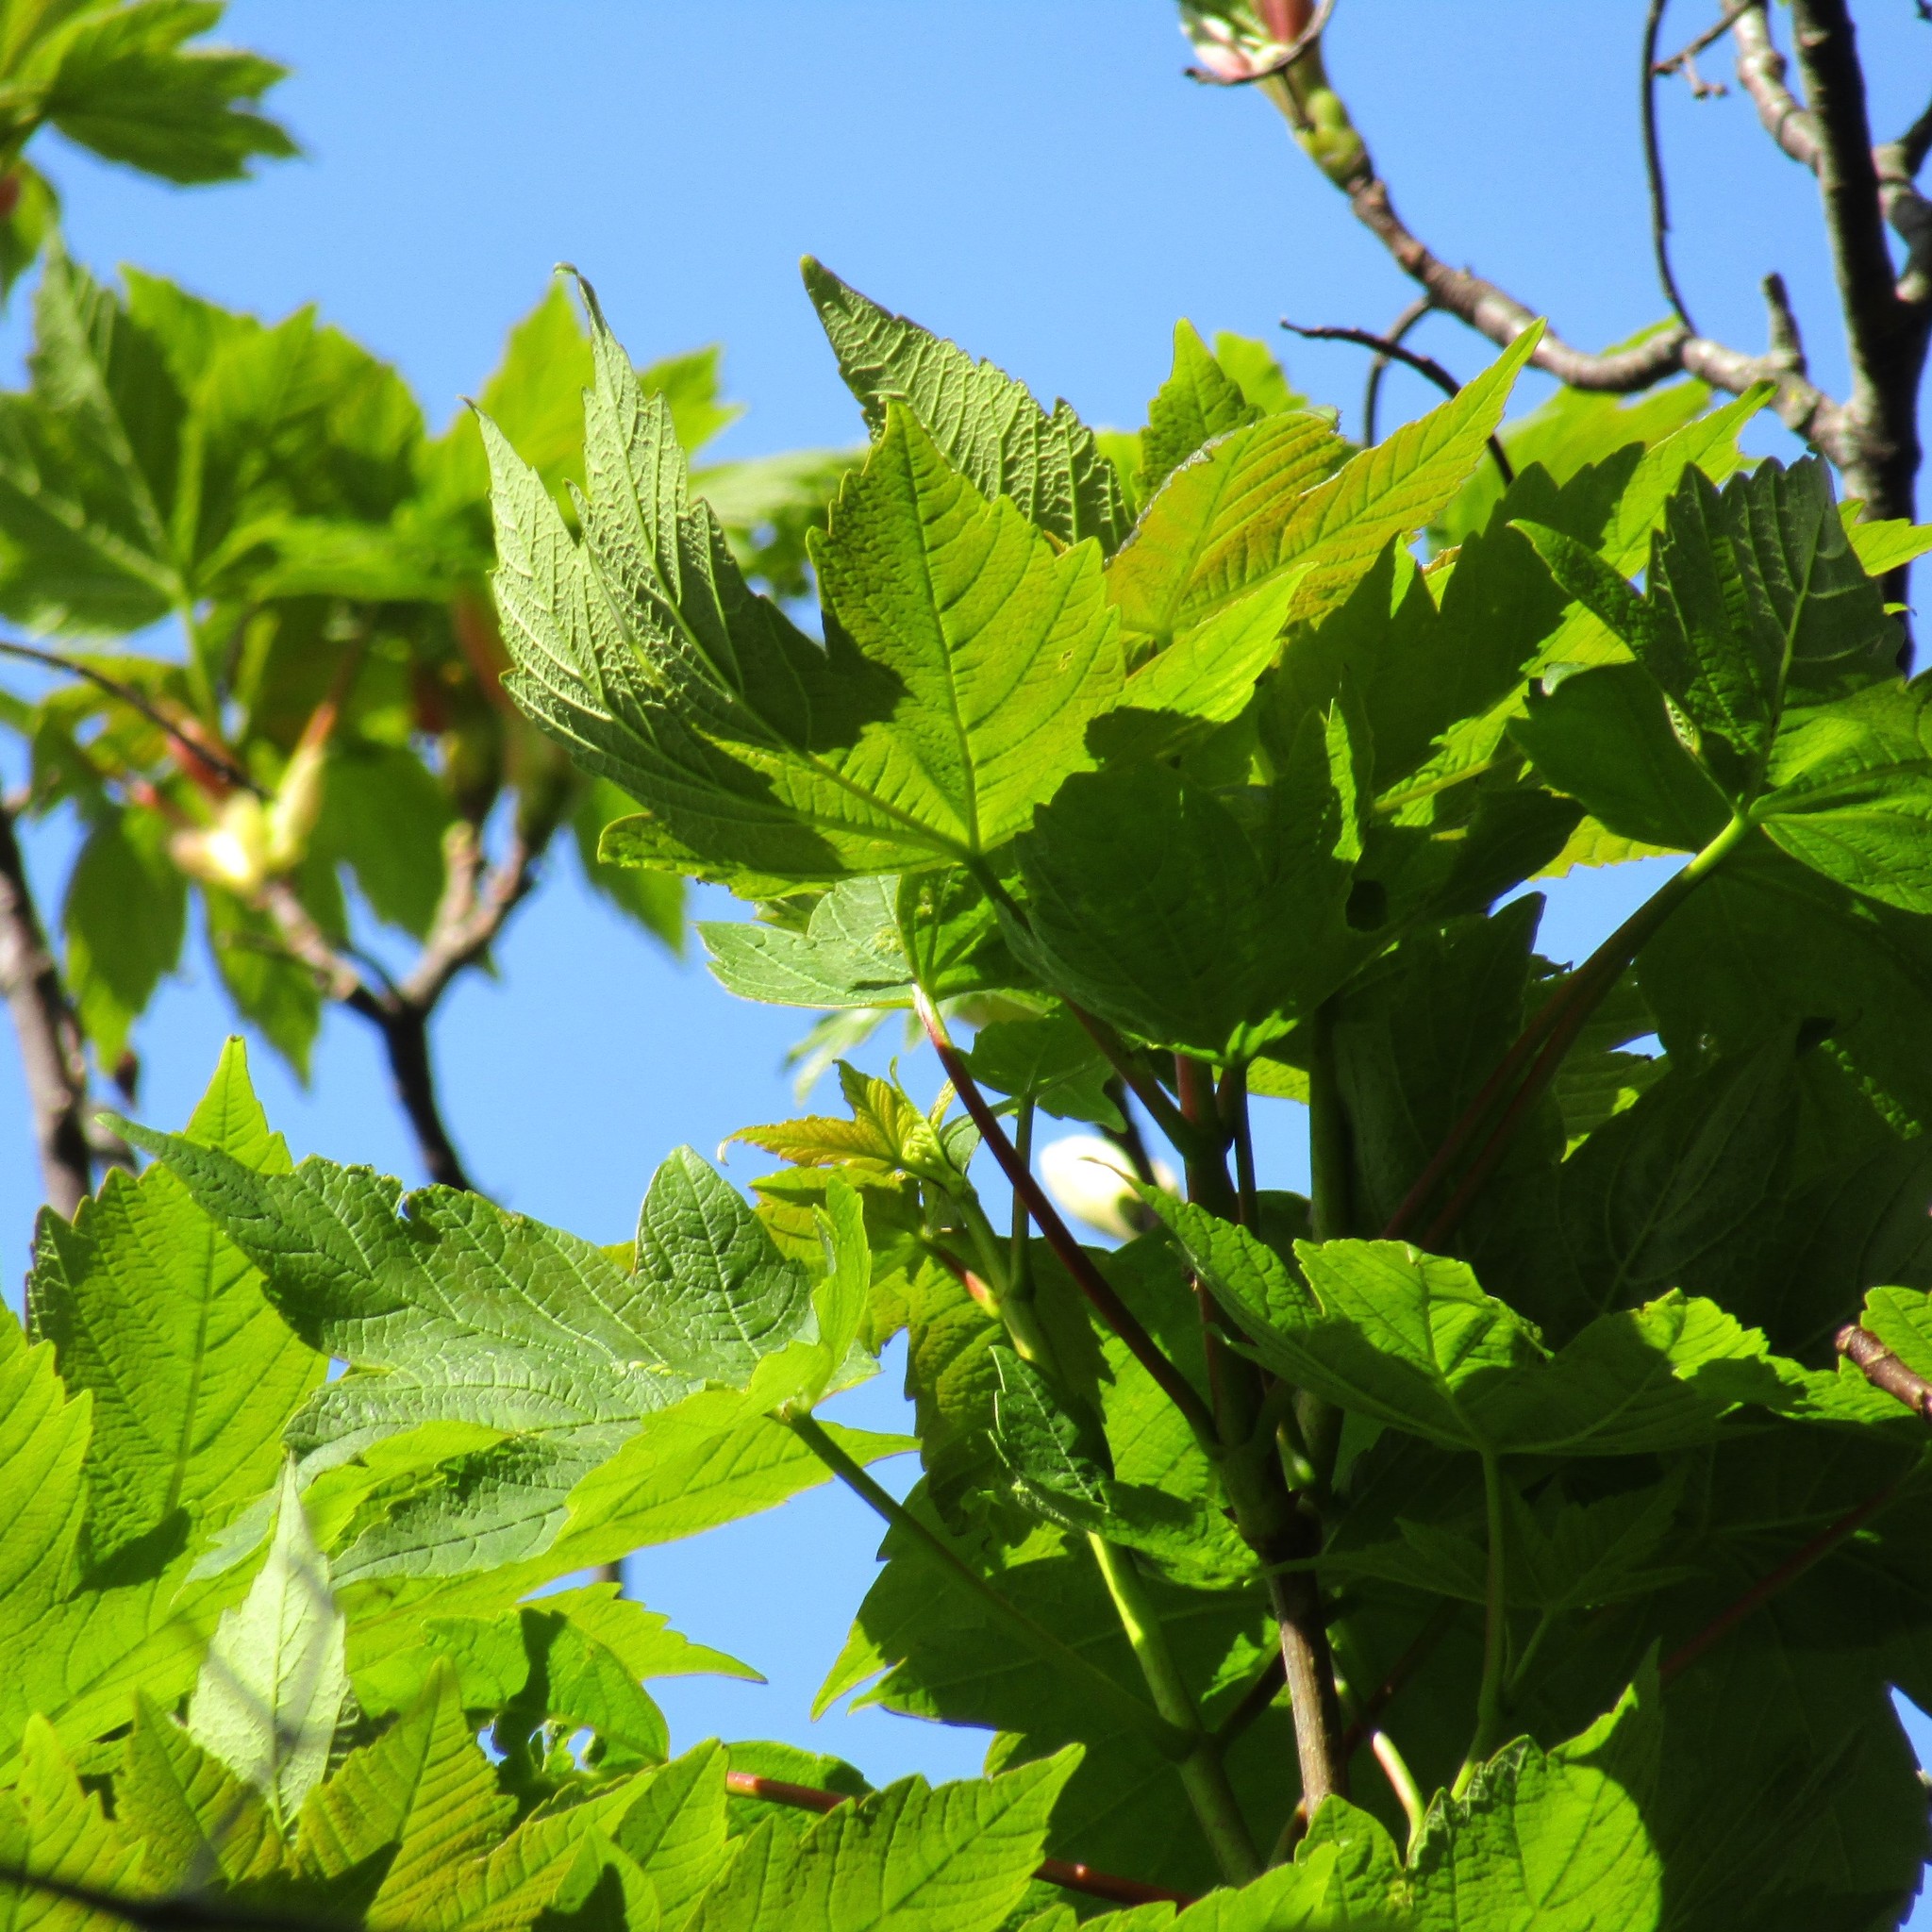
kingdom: Plantae
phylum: Tracheophyta
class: Magnoliopsida
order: Sapindales
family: Sapindaceae
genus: Acer
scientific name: Acer pseudoplatanus
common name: Sycamore
